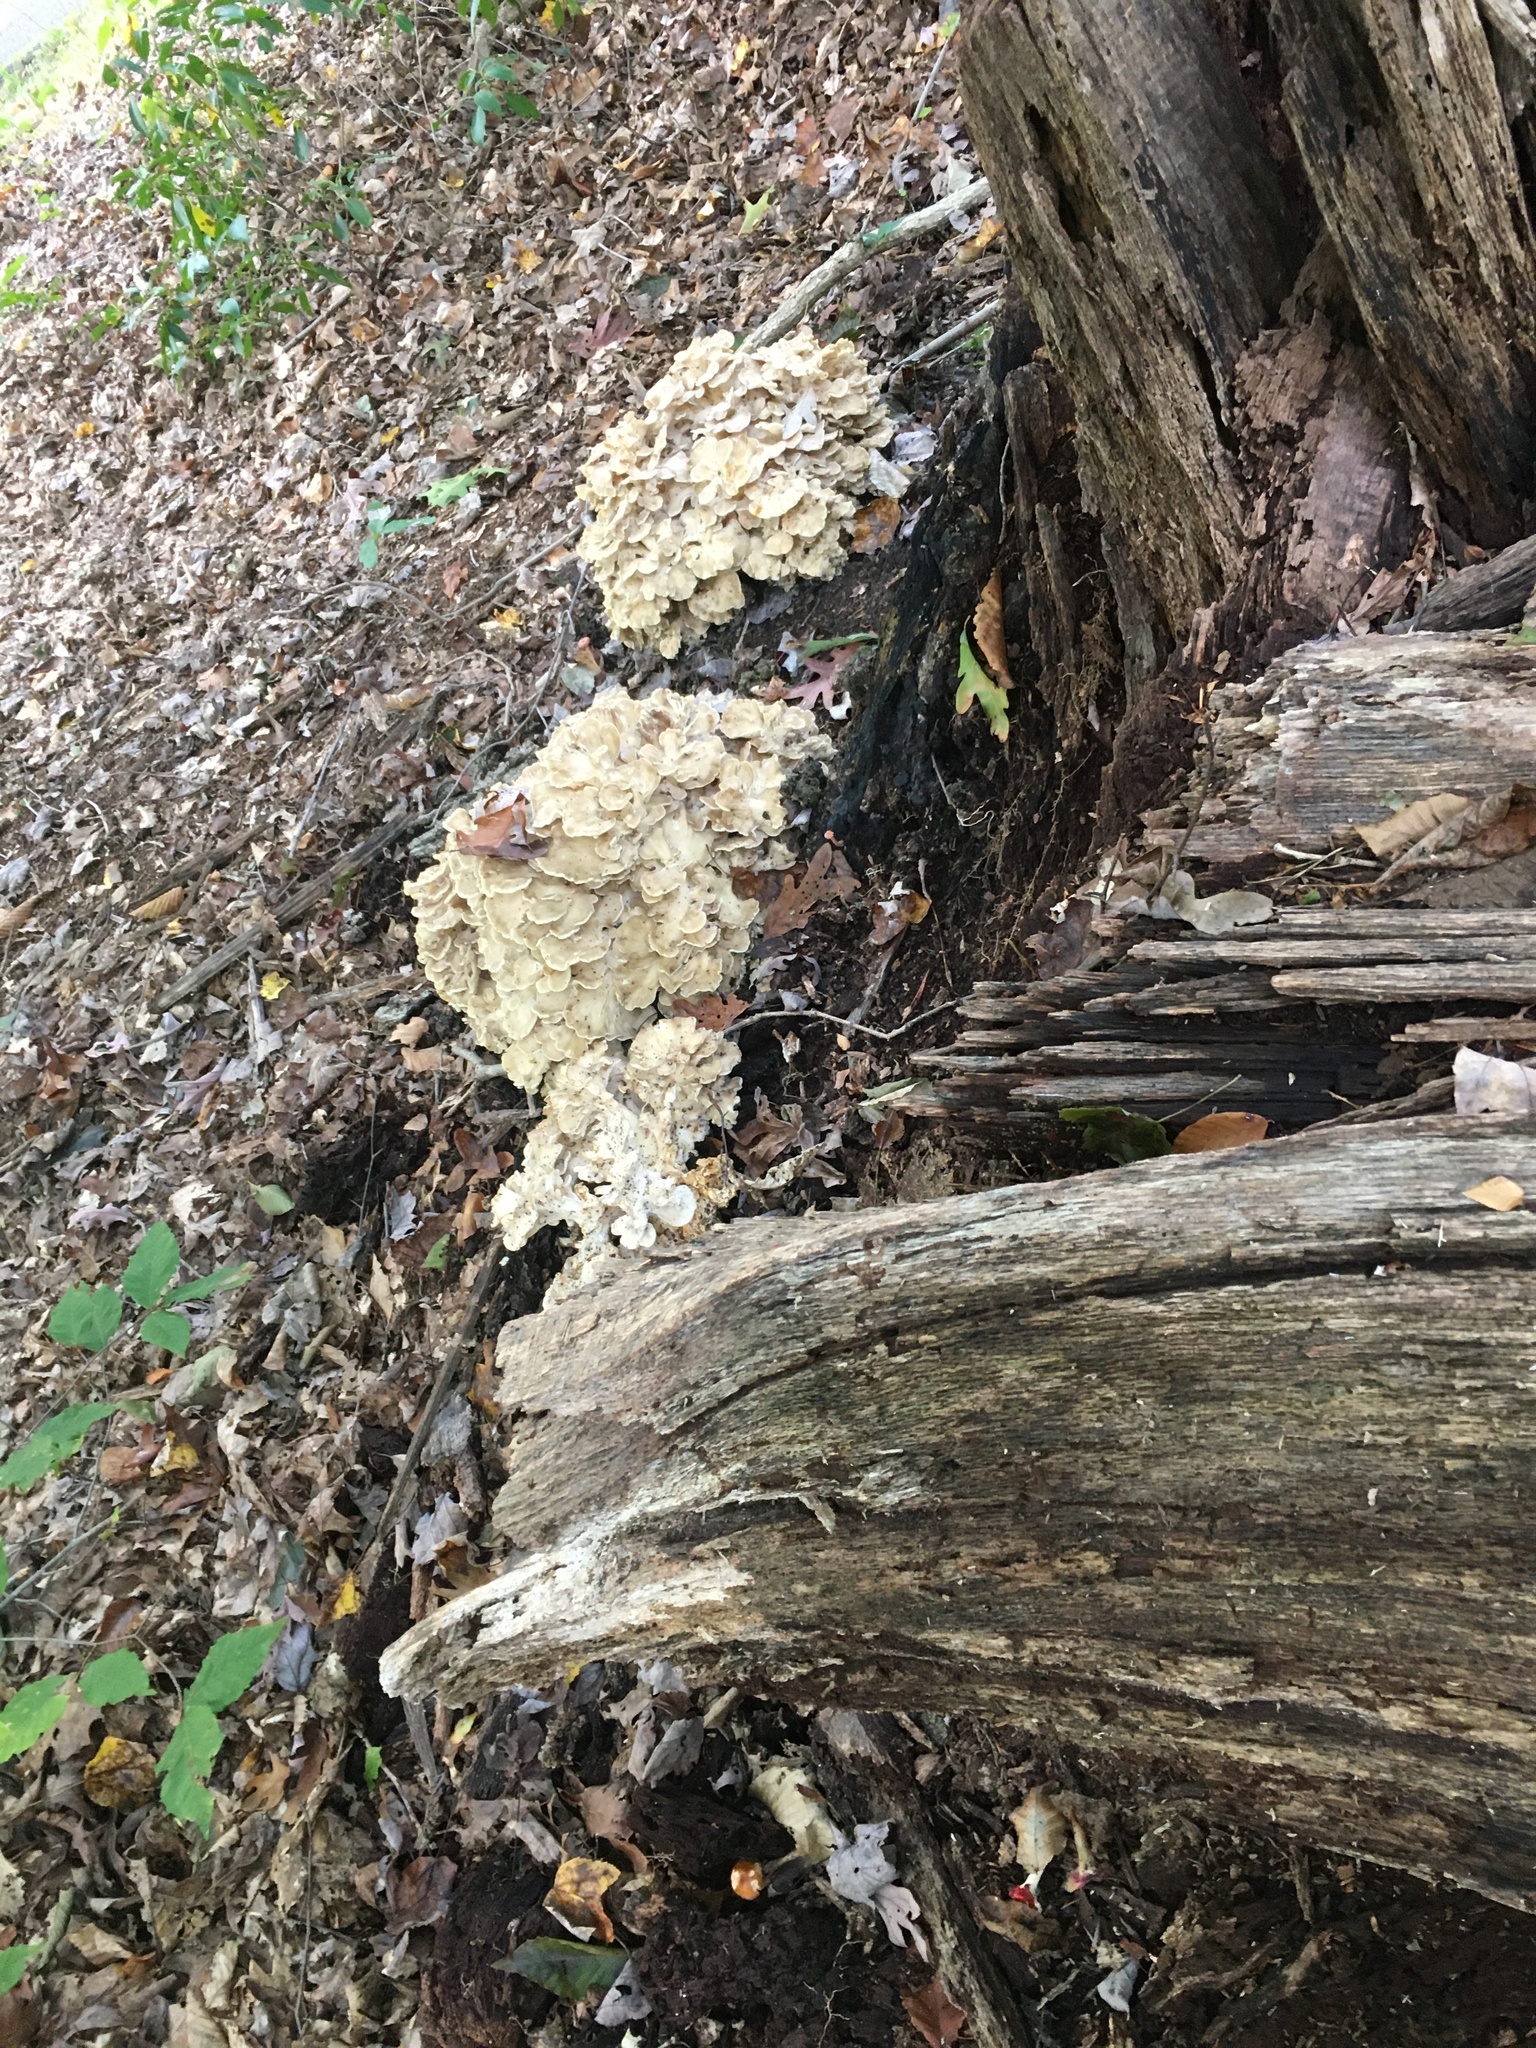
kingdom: Fungi
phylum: Basidiomycota
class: Agaricomycetes
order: Polyporales
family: Grifolaceae
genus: Grifola
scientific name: Grifola frondosa
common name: Hen of the woods
